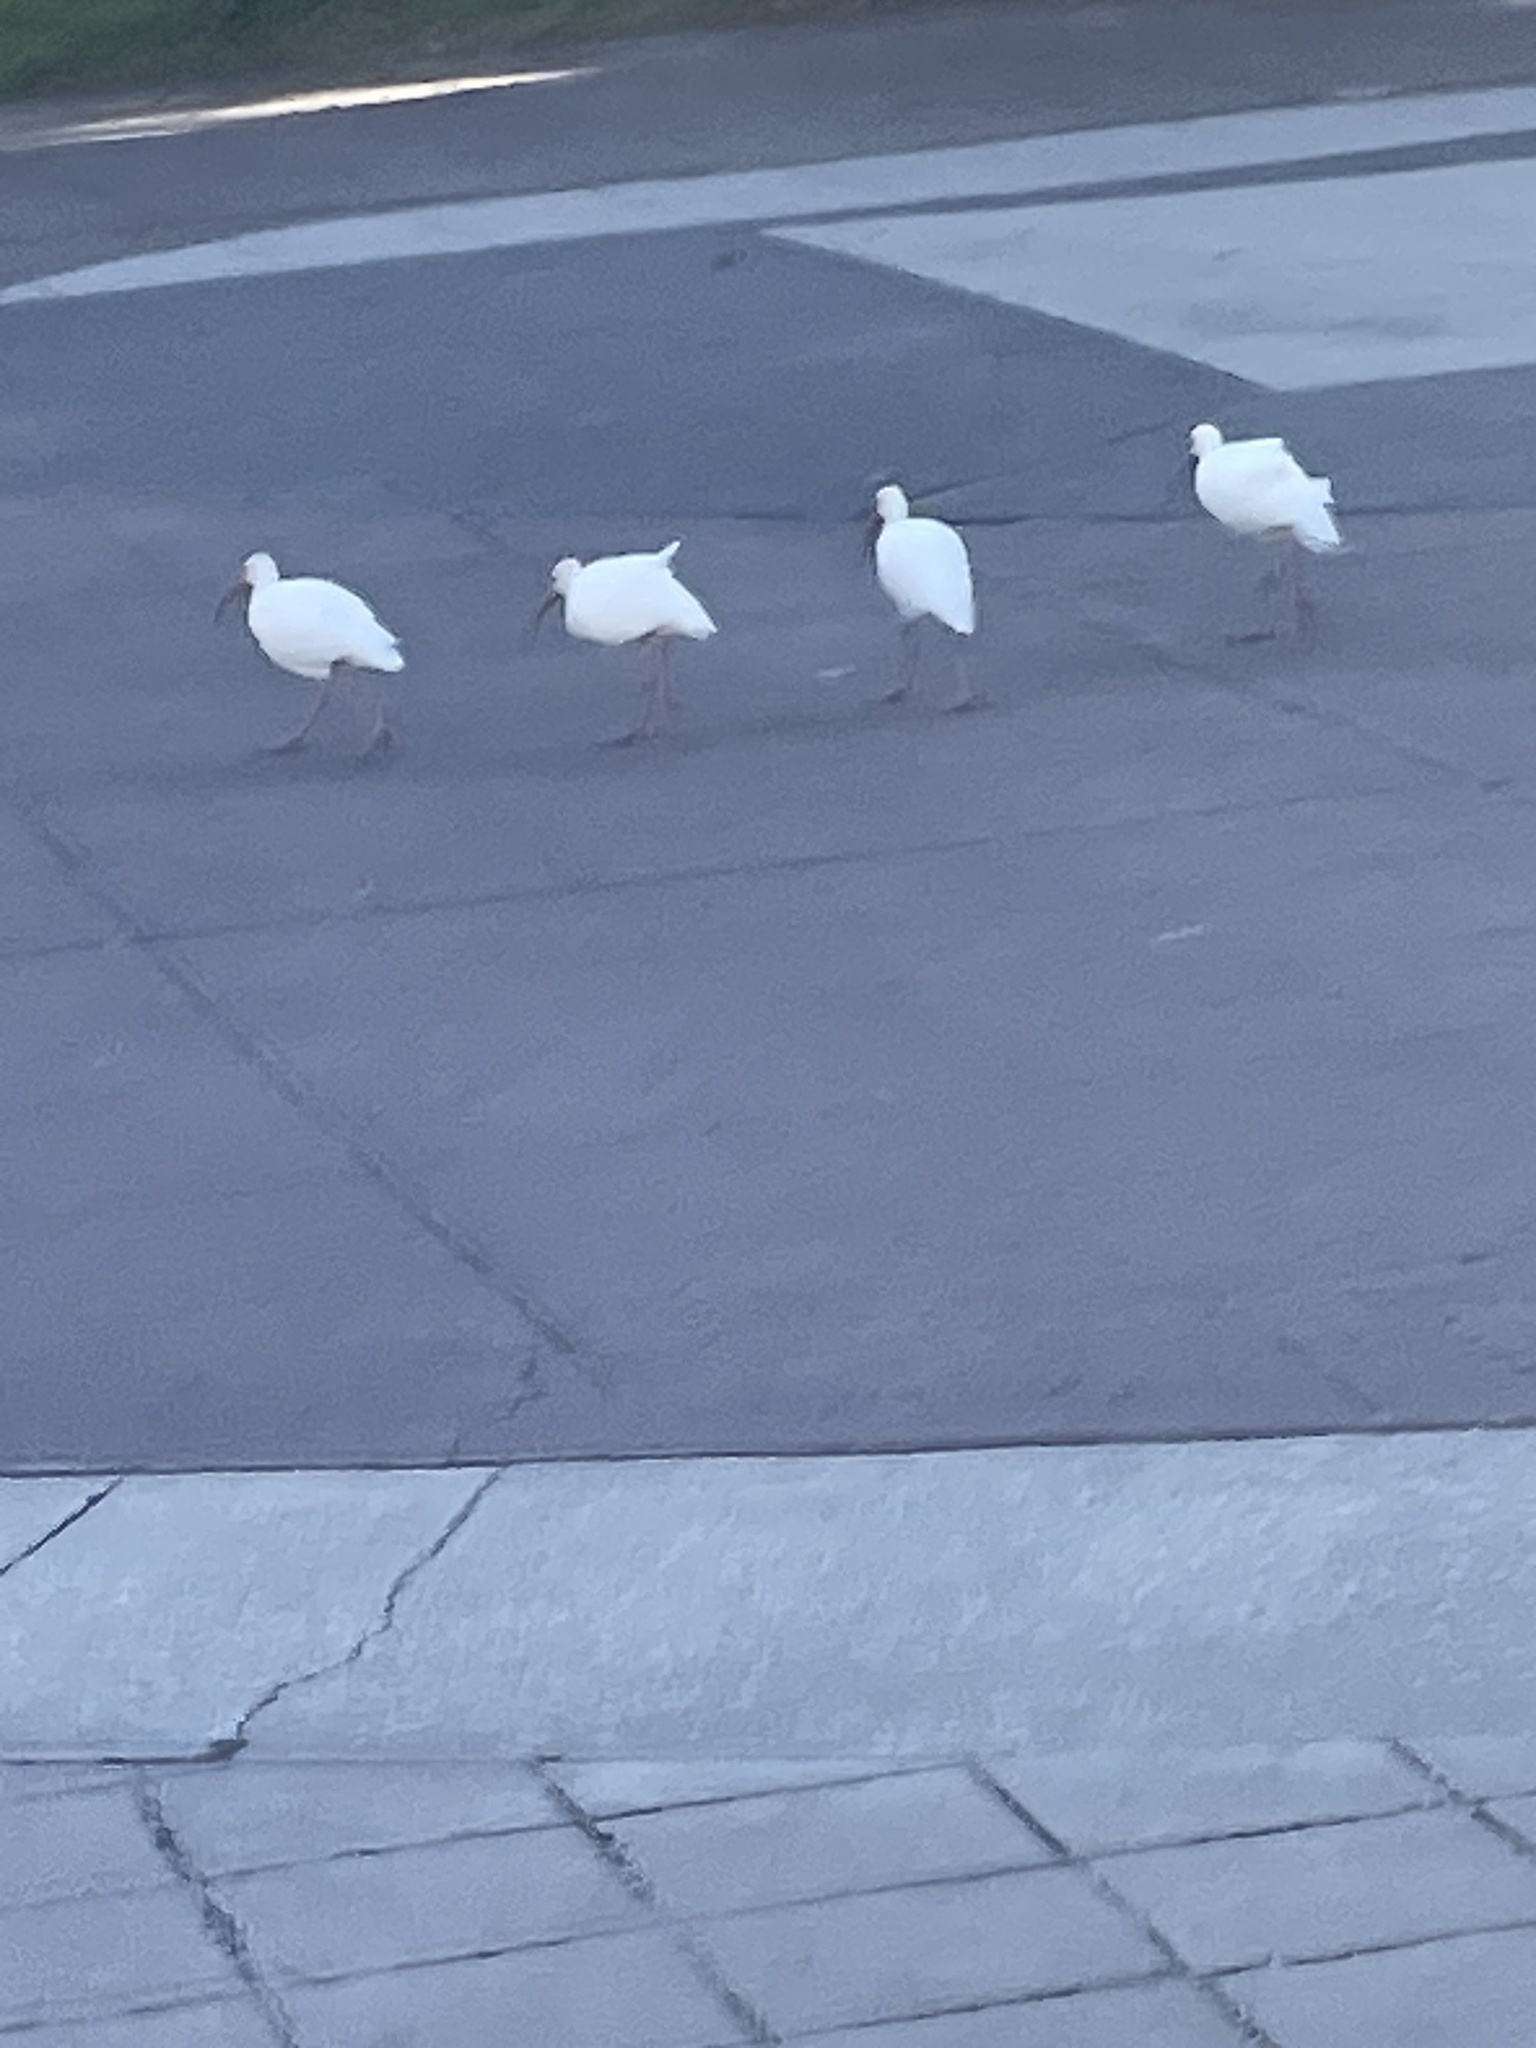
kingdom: Animalia
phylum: Chordata
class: Aves
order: Pelecaniformes
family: Threskiornithidae
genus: Eudocimus
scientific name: Eudocimus albus
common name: White ibis
